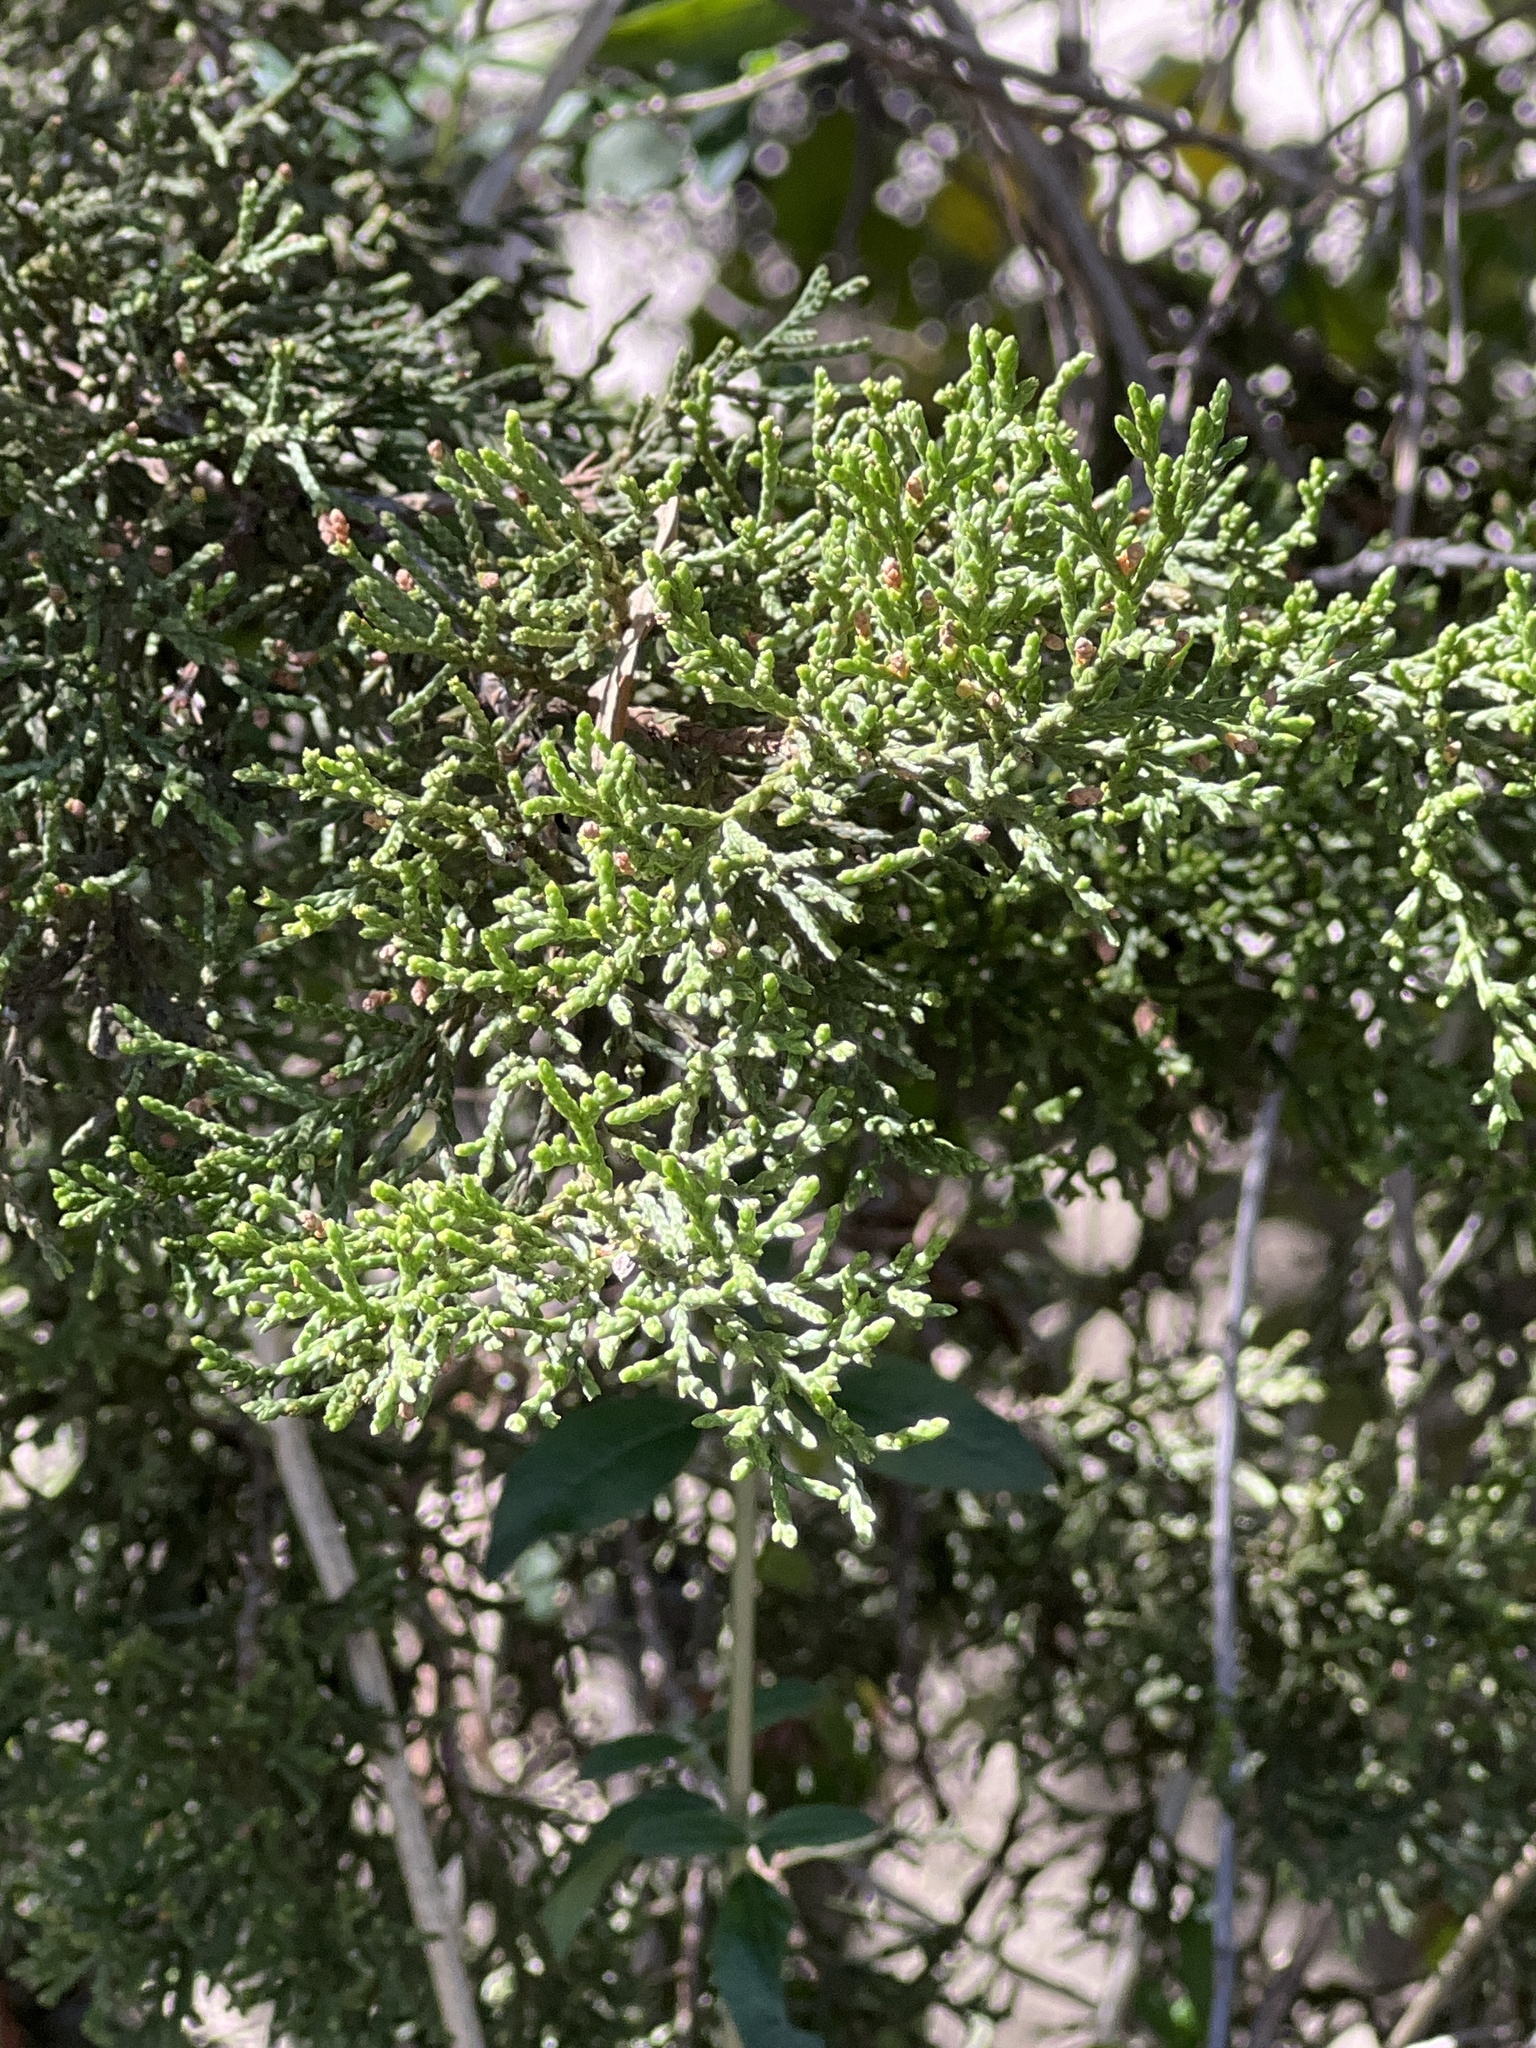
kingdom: Plantae
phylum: Tracheophyta
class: Pinopsida
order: Pinales
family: Cupressaceae
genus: Juniperus
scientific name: Juniperus ashei
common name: Mexican juniper
